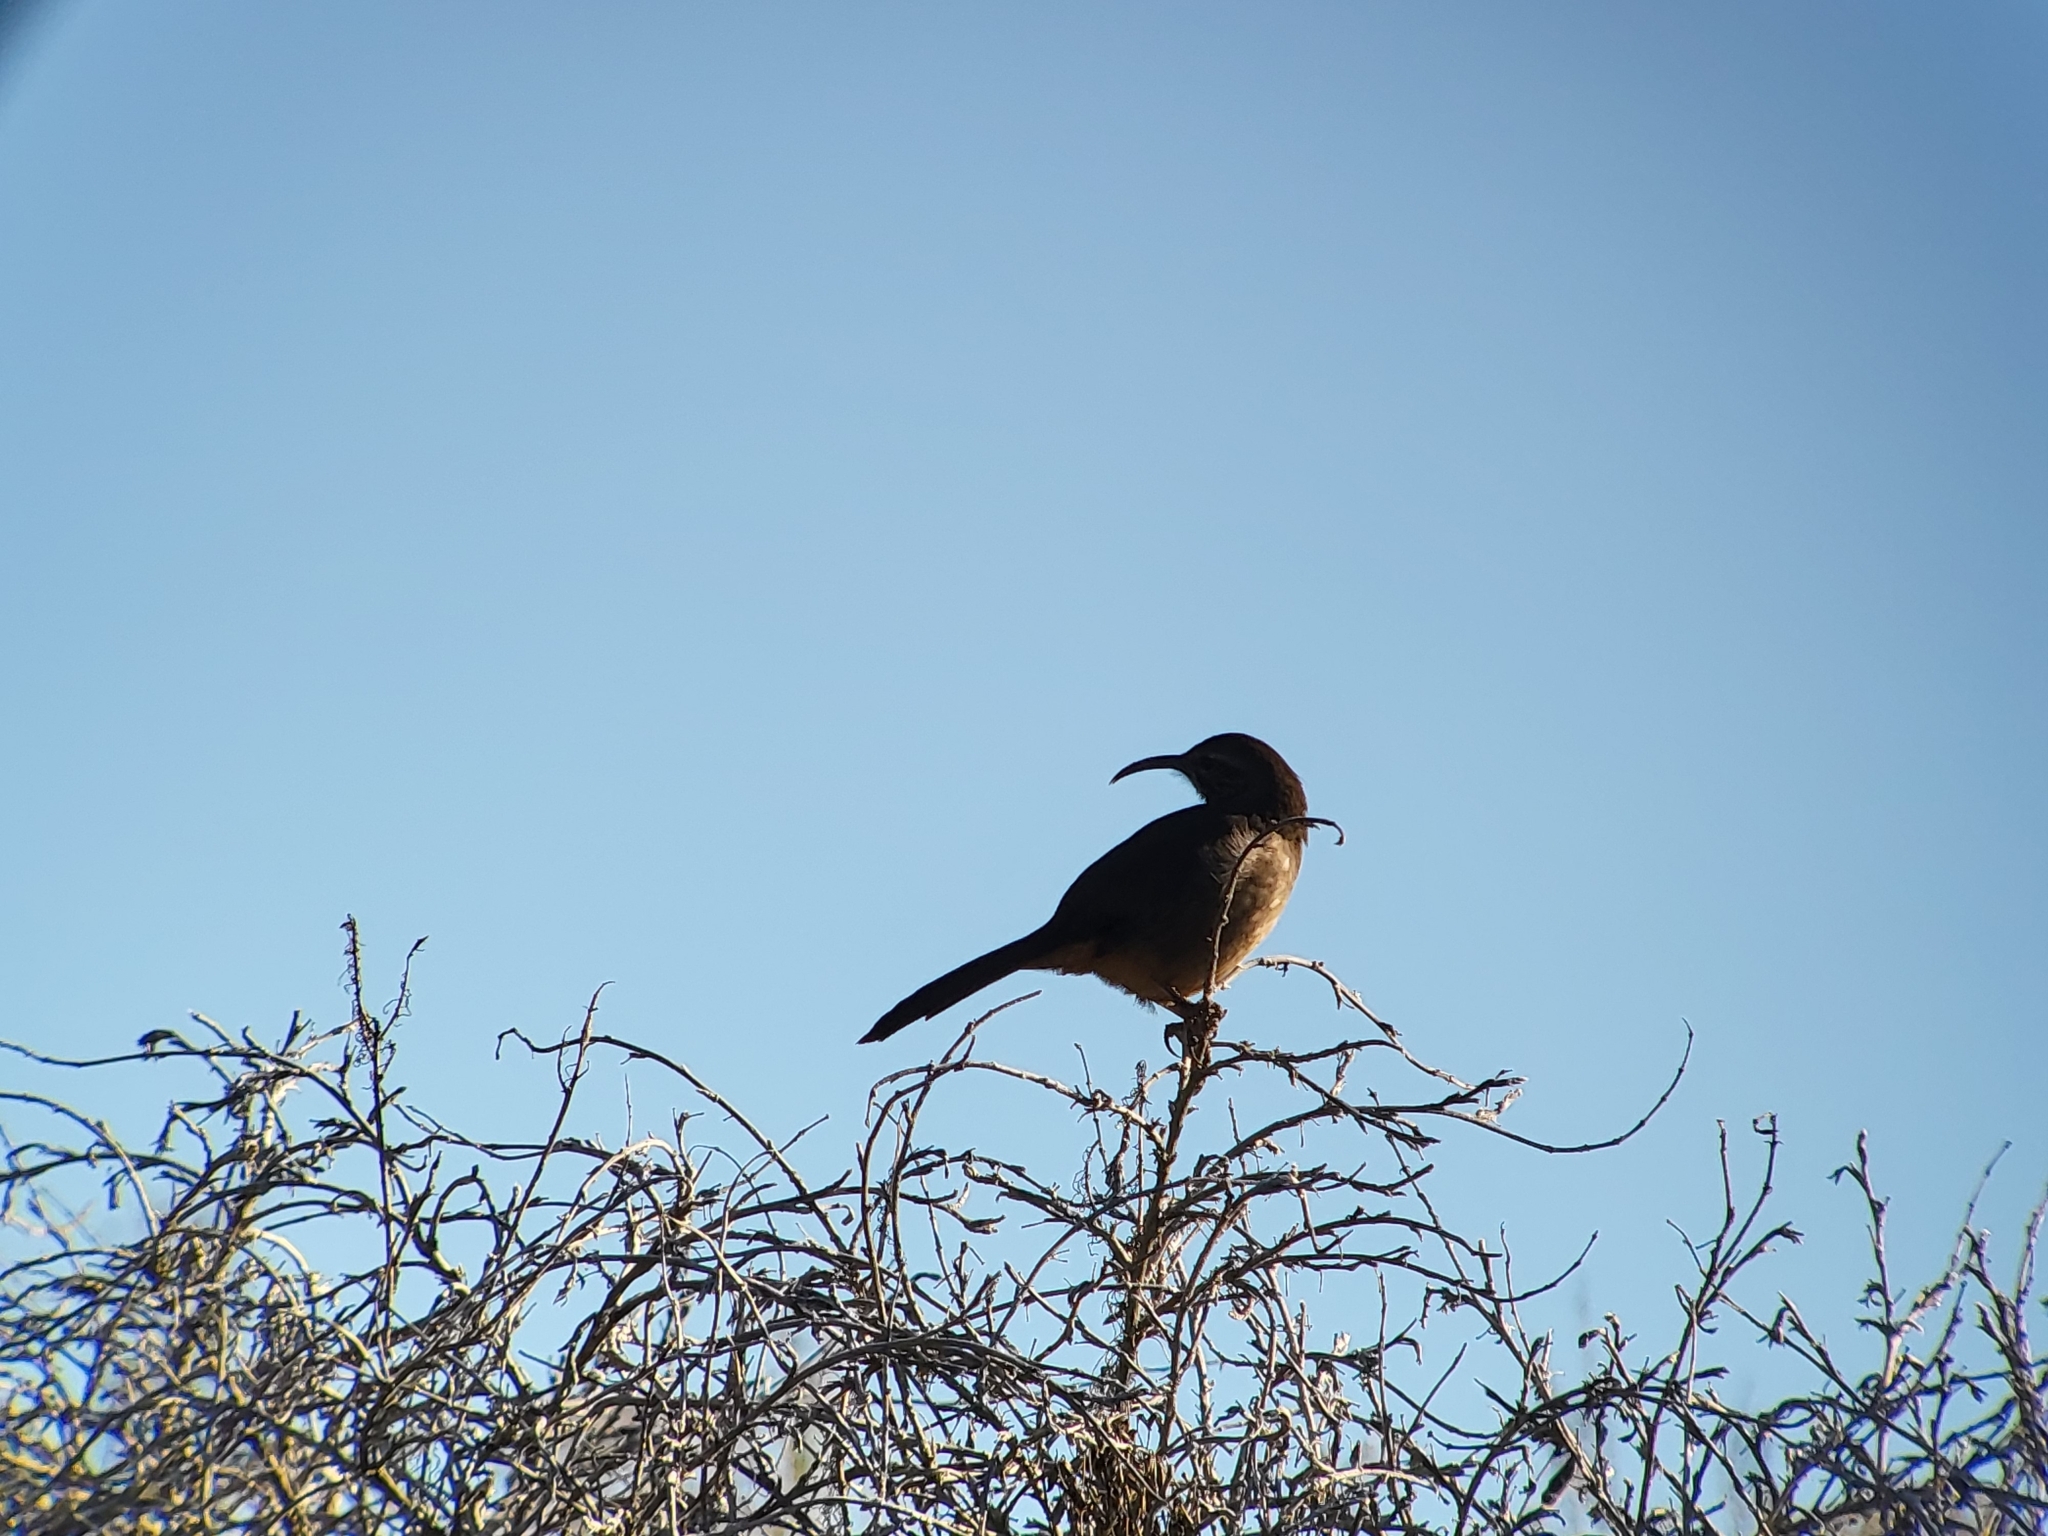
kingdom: Animalia
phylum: Chordata
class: Aves
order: Passeriformes
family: Mimidae
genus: Toxostoma
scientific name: Toxostoma redivivum
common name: California thrasher
